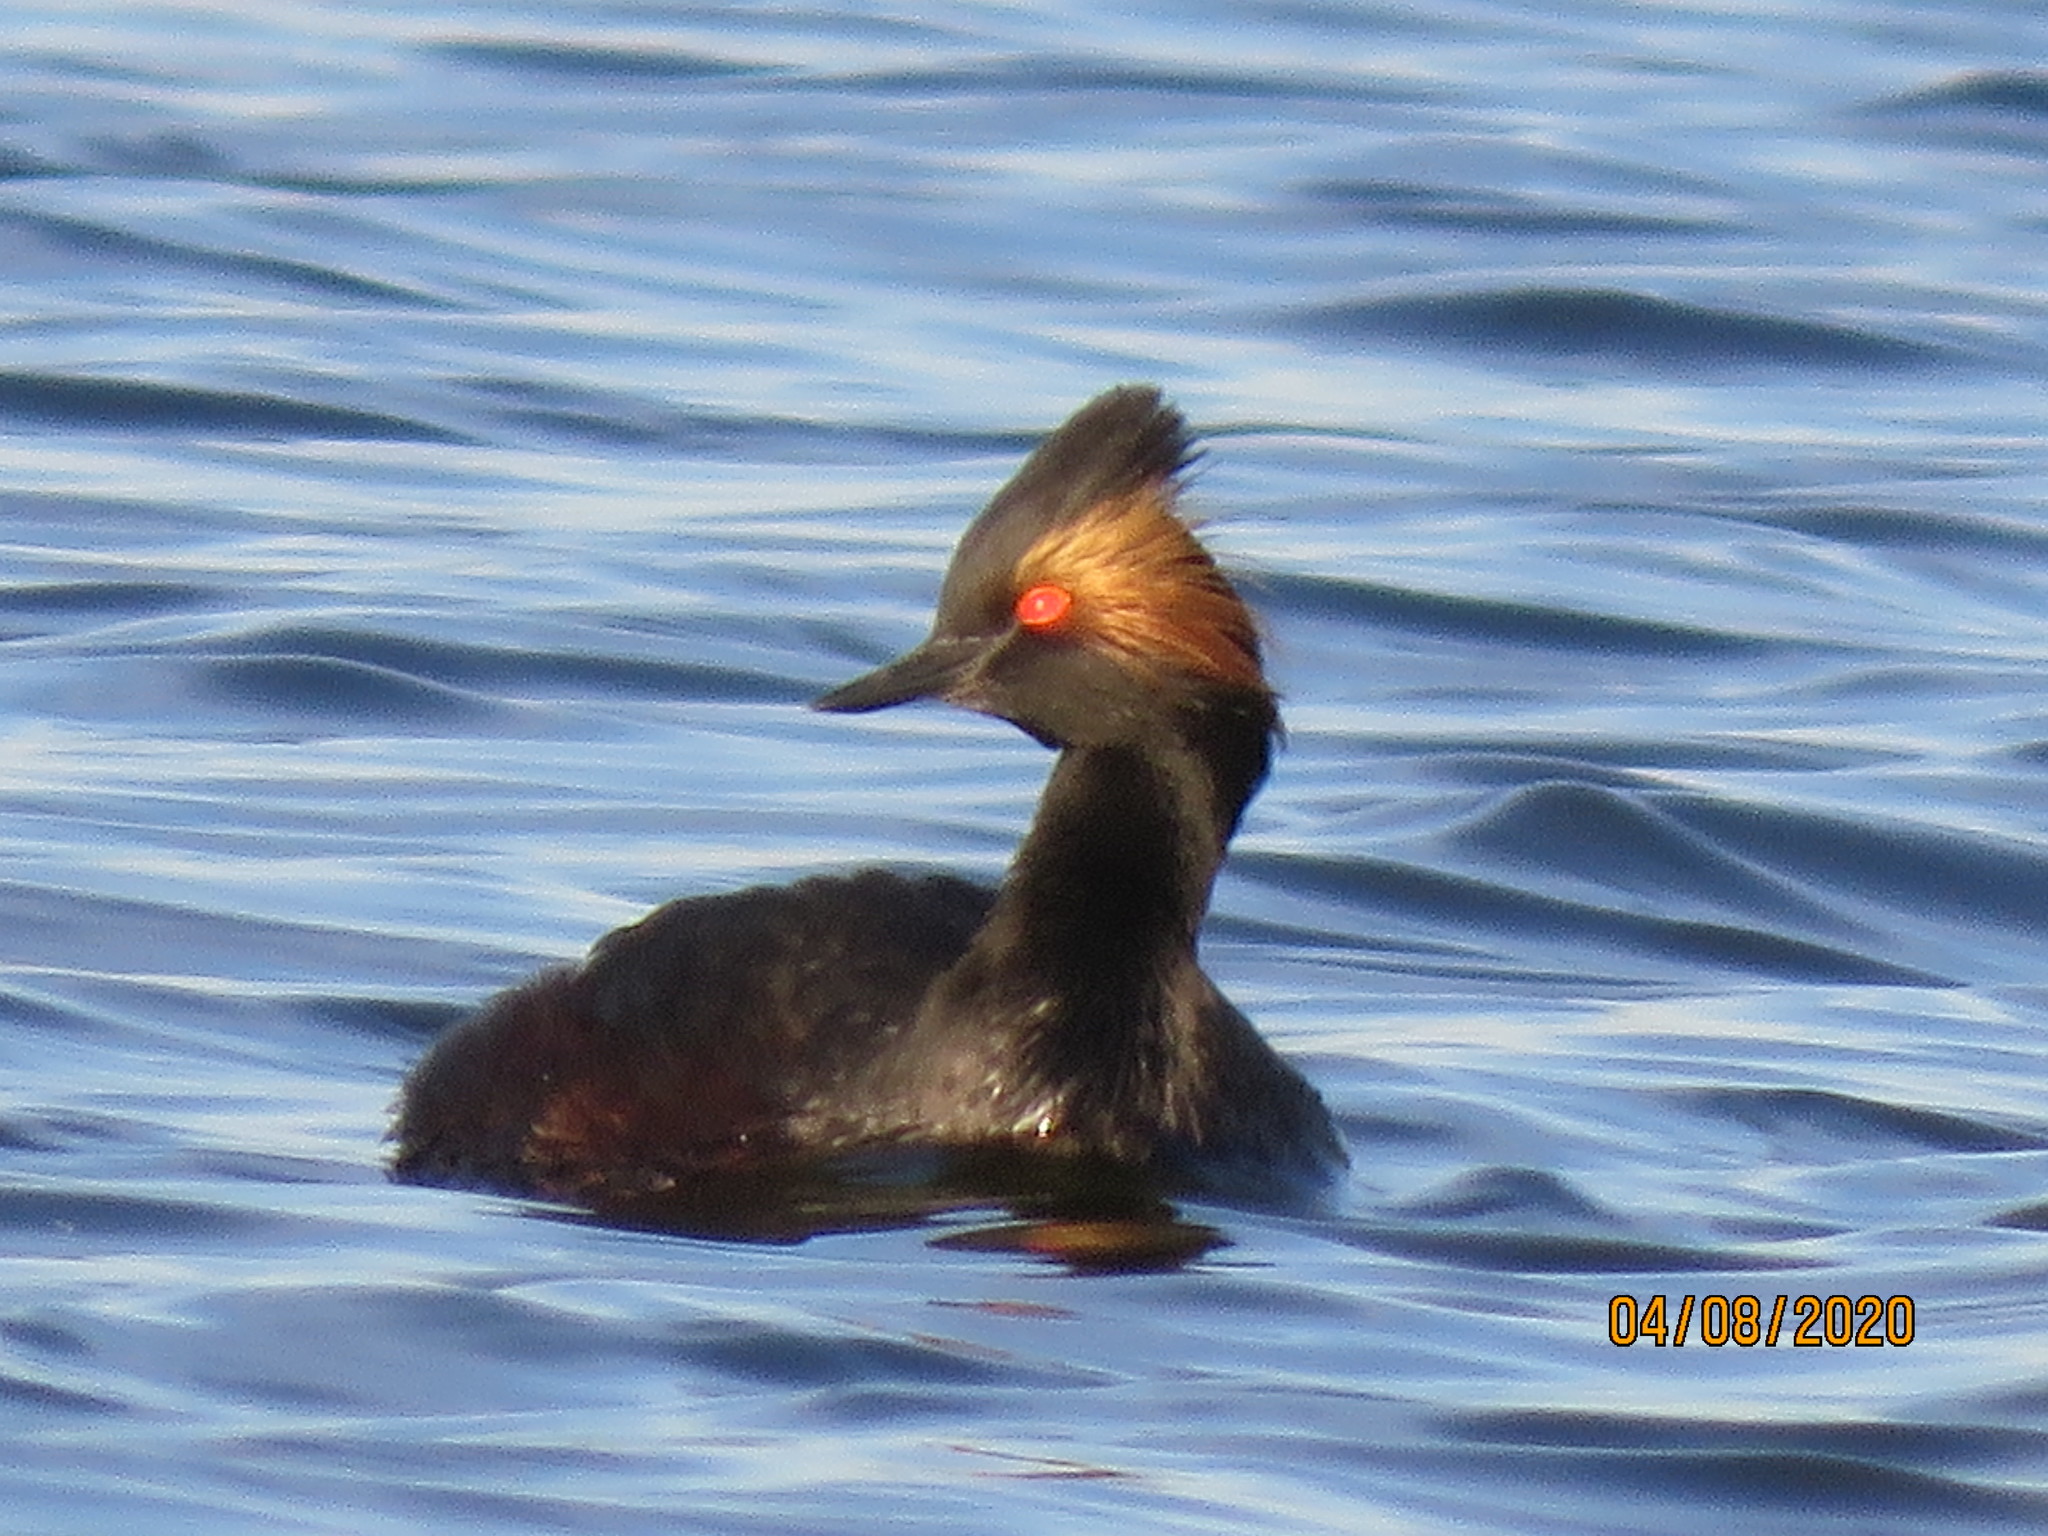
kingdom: Animalia
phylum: Chordata
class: Aves
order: Podicipediformes
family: Podicipedidae
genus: Podiceps
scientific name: Podiceps nigricollis
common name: Black-necked grebe
